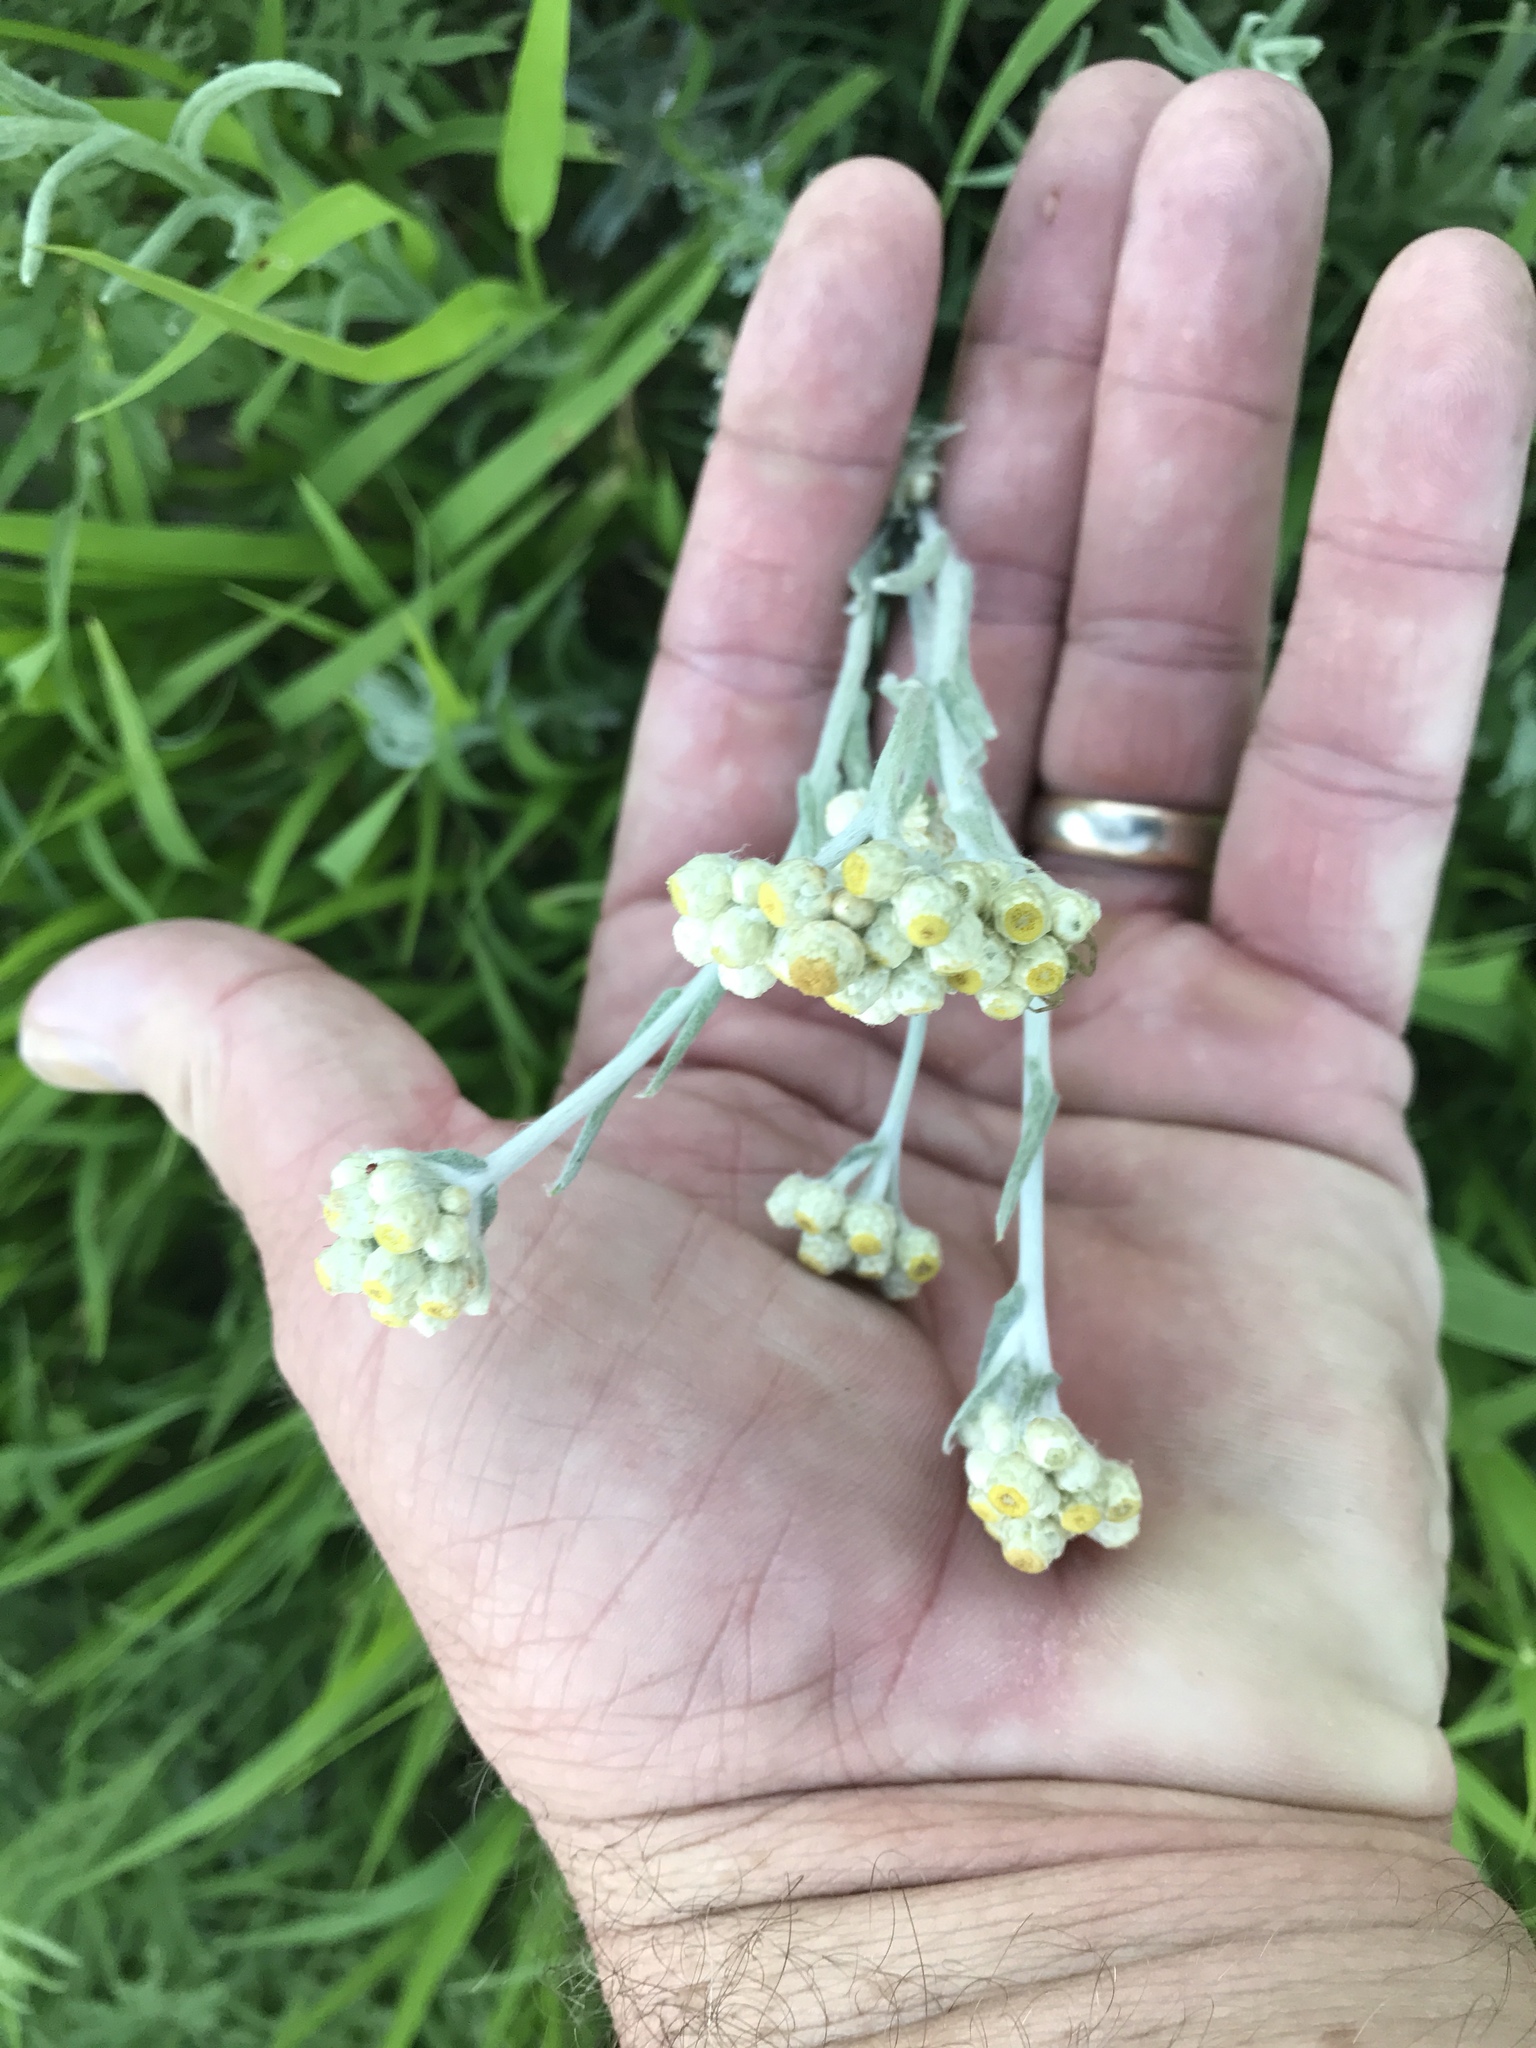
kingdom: Plantae
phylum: Tracheophyta
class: Magnoliopsida
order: Asterales
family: Asteraceae
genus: Pseudognaphalium
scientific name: Pseudognaphalium stramineum
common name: Cotton-batting-plant
